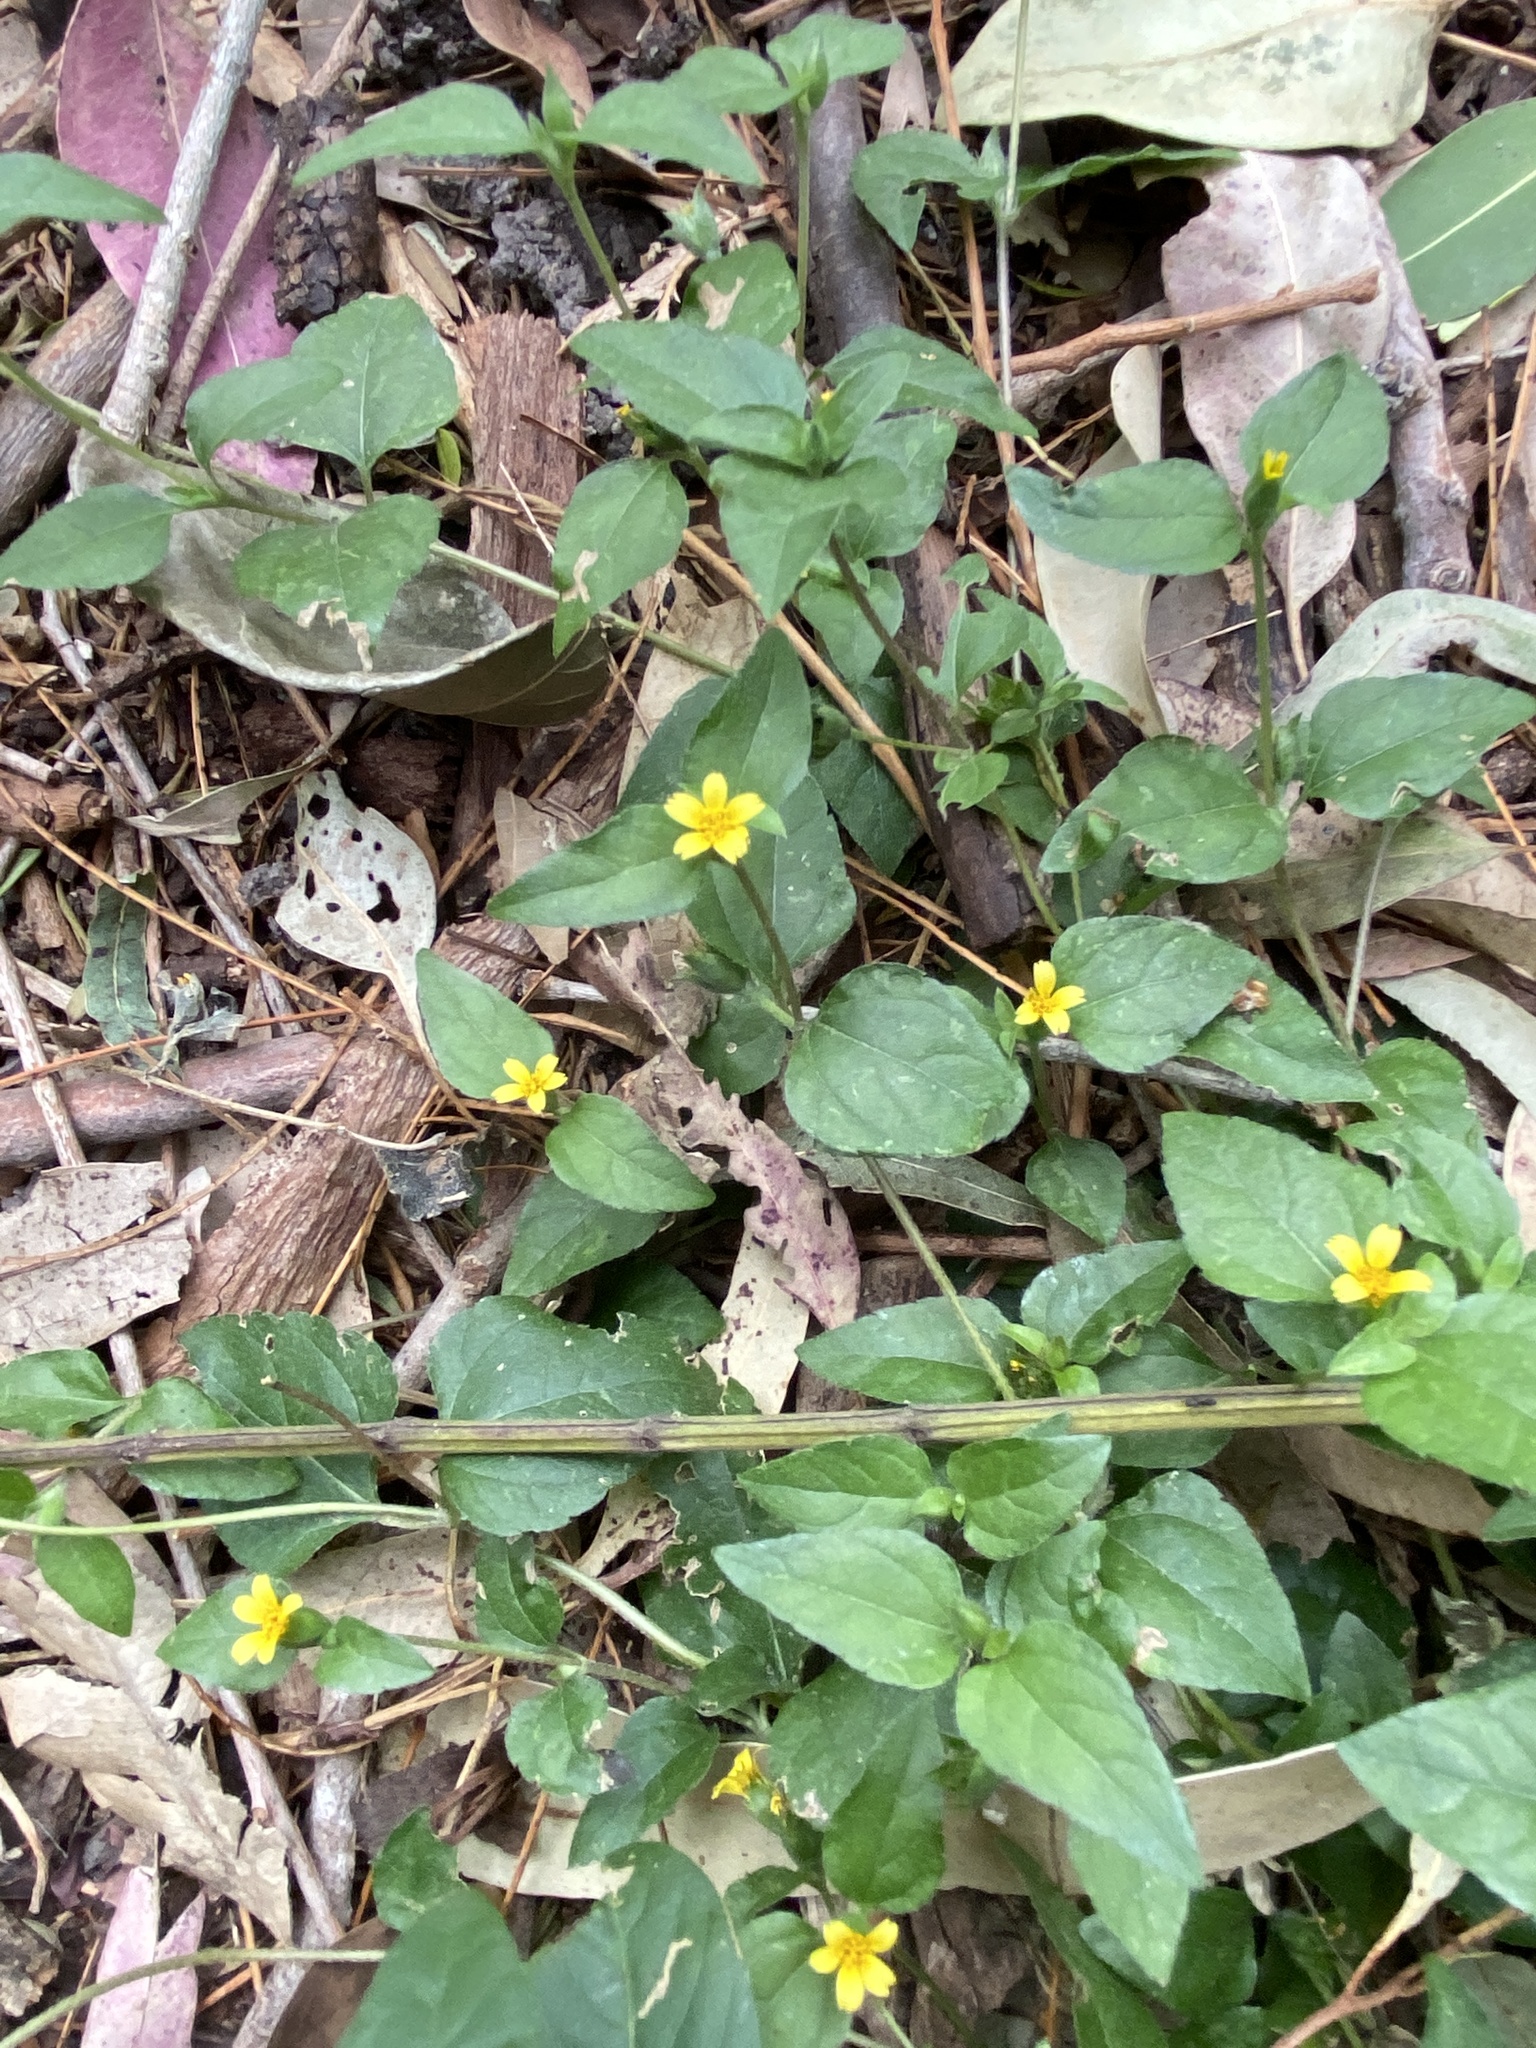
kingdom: Plantae
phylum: Tracheophyta
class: Magnoliopsida
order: Asterales
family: Asteraceae
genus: Calyptocarpus
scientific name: Calyptocarpus vialis
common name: Straggler daisy
